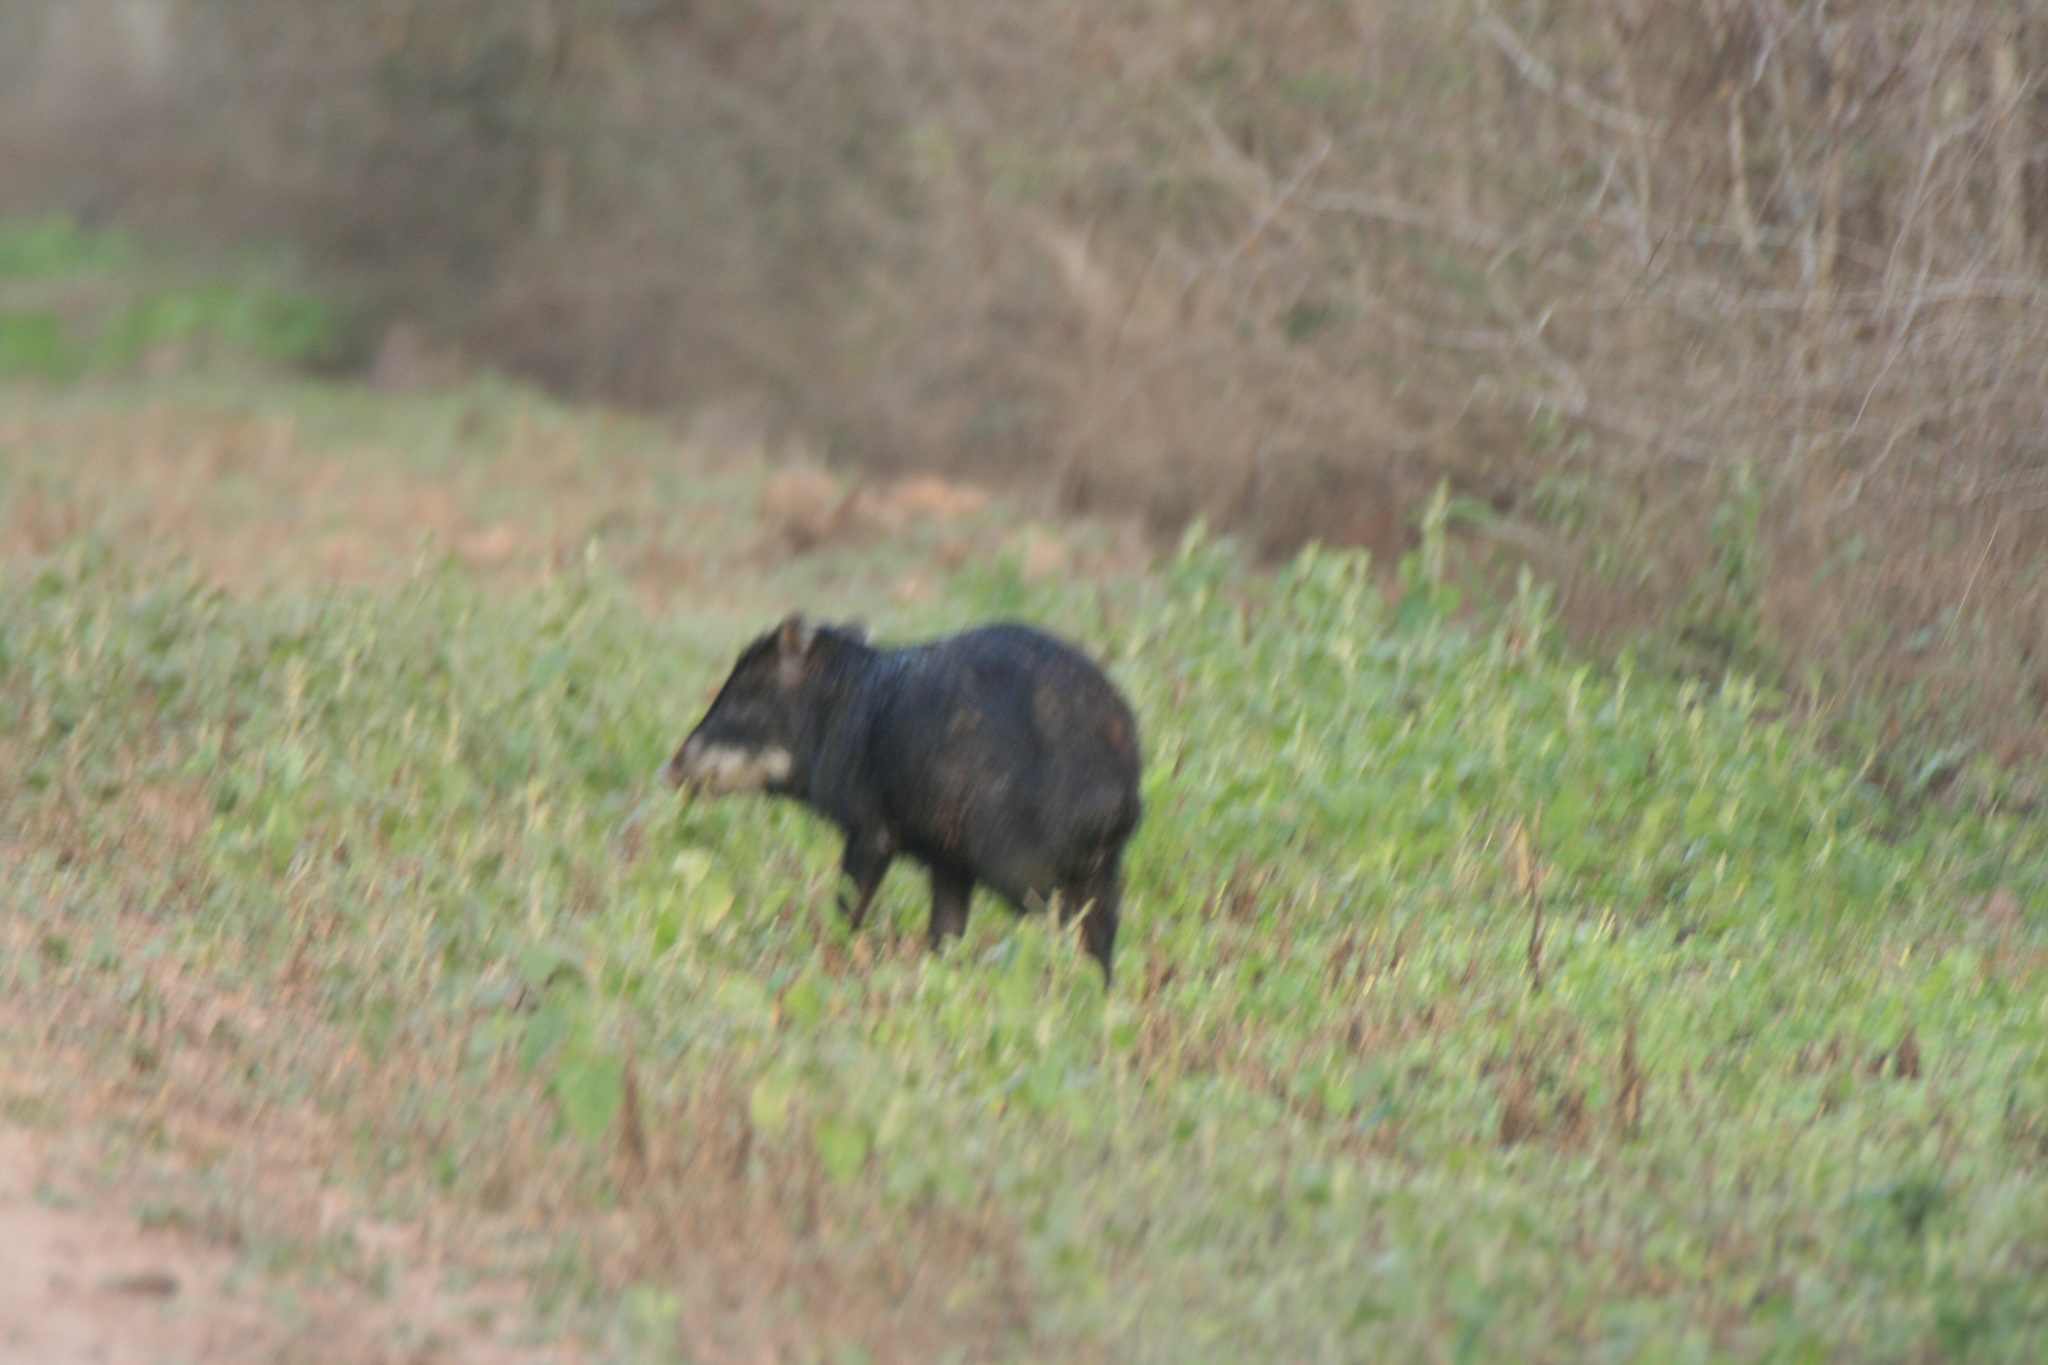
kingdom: Animalia
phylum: Chordata
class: Mammalia
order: Artiodactyla
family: Tayassuidae
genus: Tayassu
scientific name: Tayassu pecari
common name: White-lipped peccary
